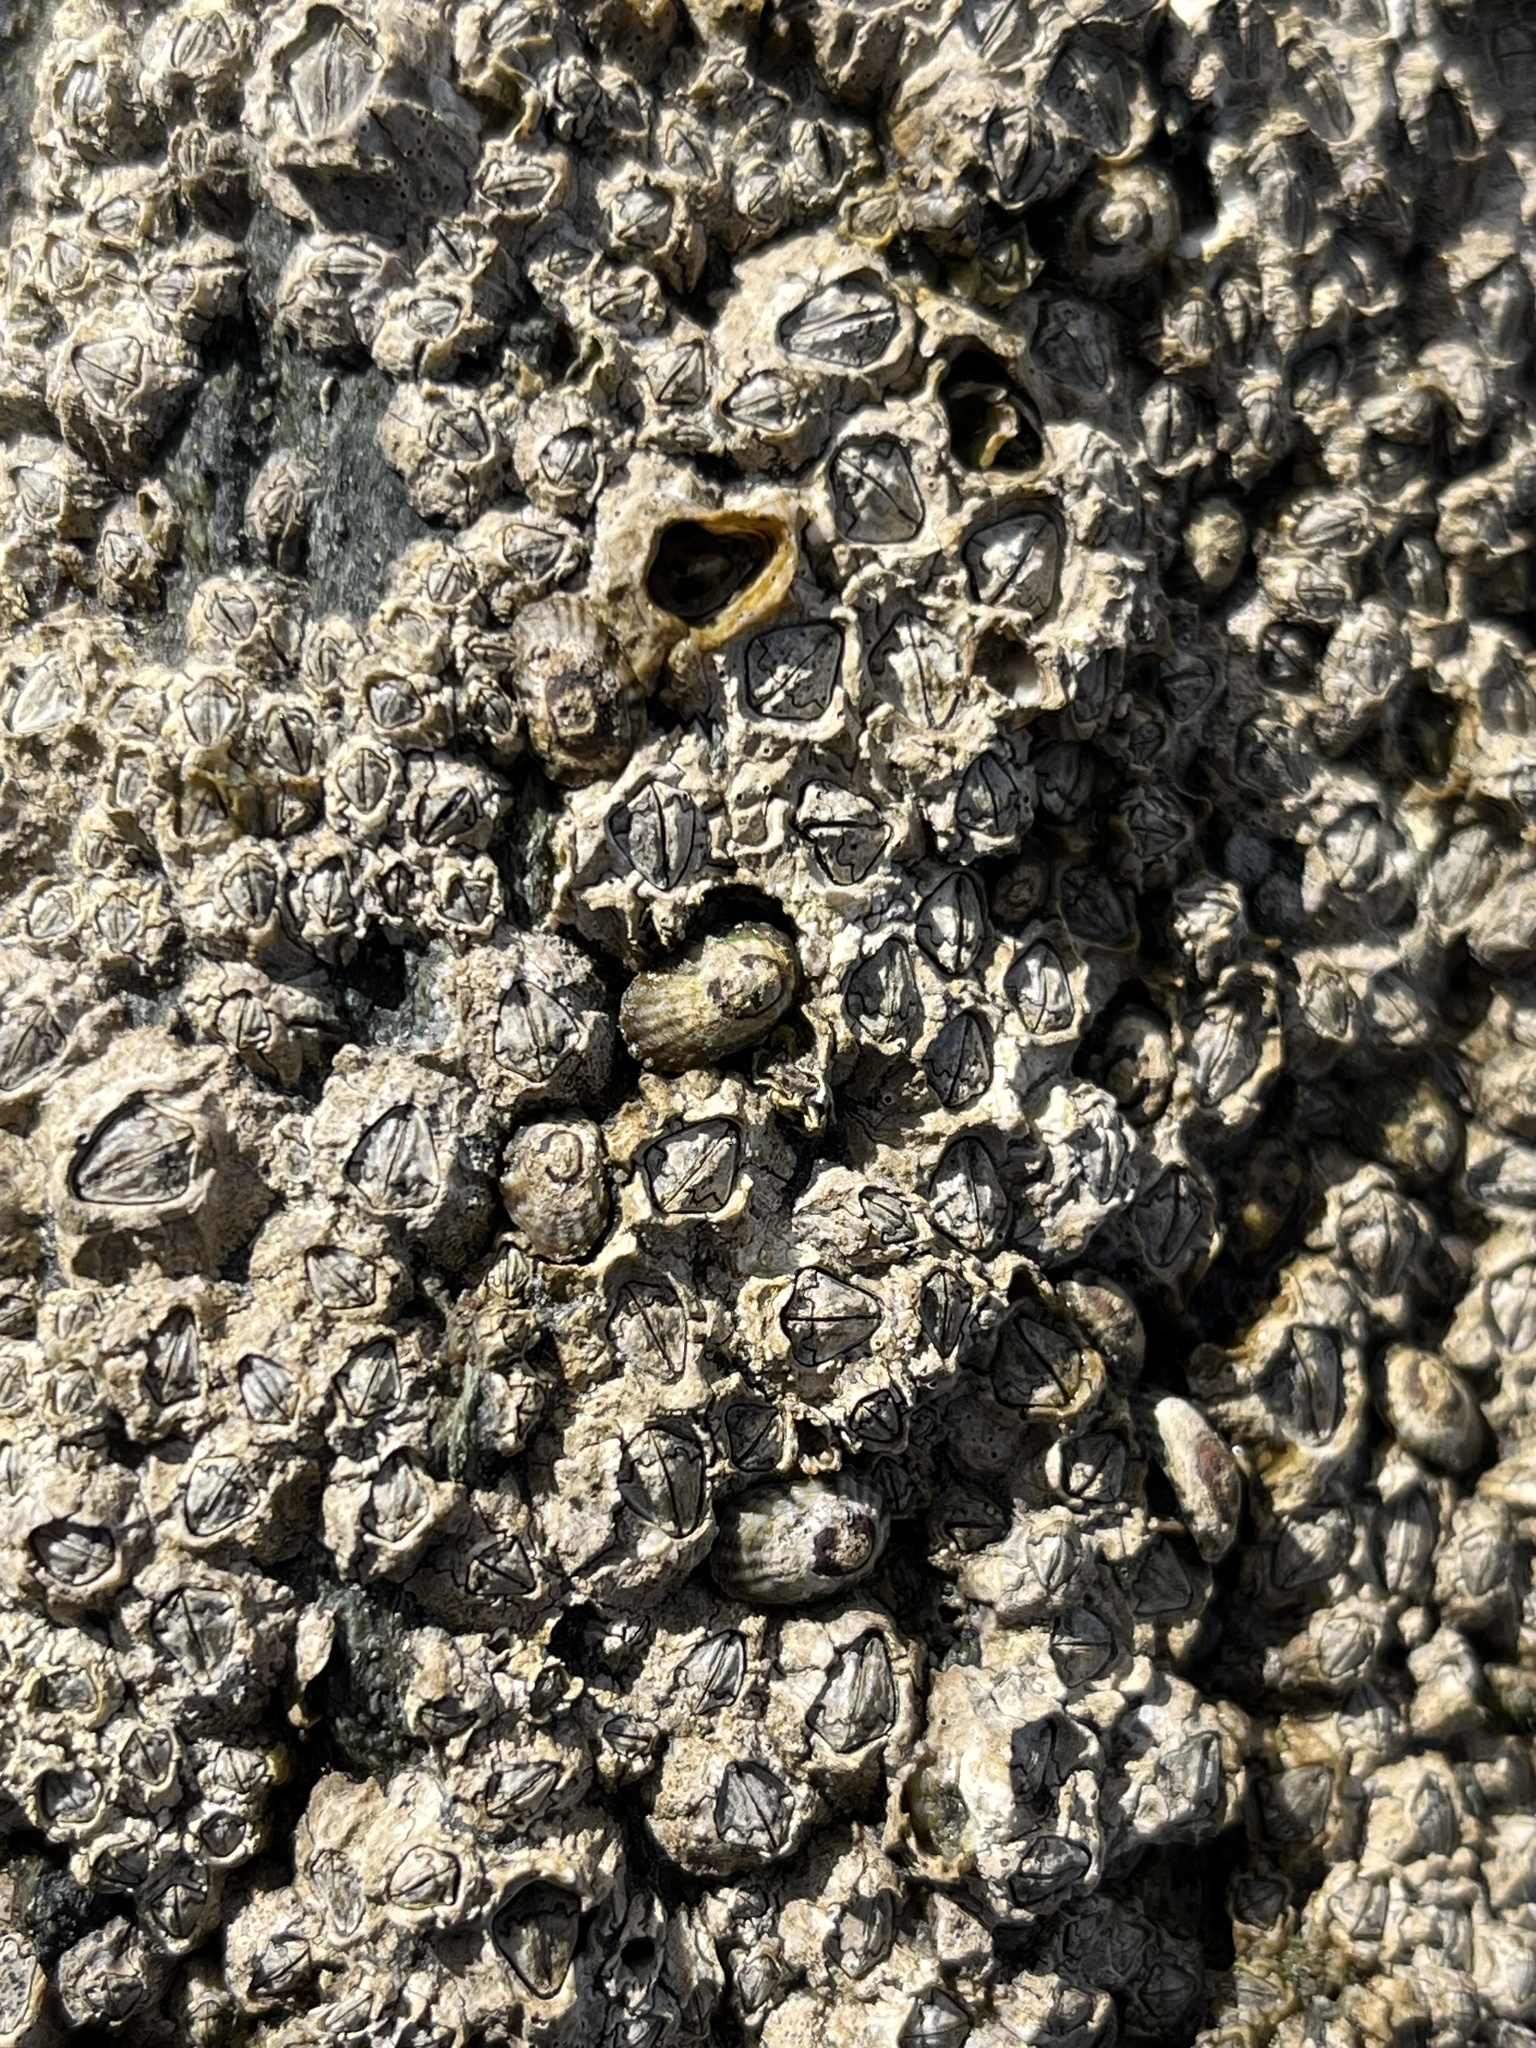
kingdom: Animalia
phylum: Arthropoda
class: Maxillopoda
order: Sessilia
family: Chthamalidae
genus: Notochthamalus
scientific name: Notochthamalus scabrosus
